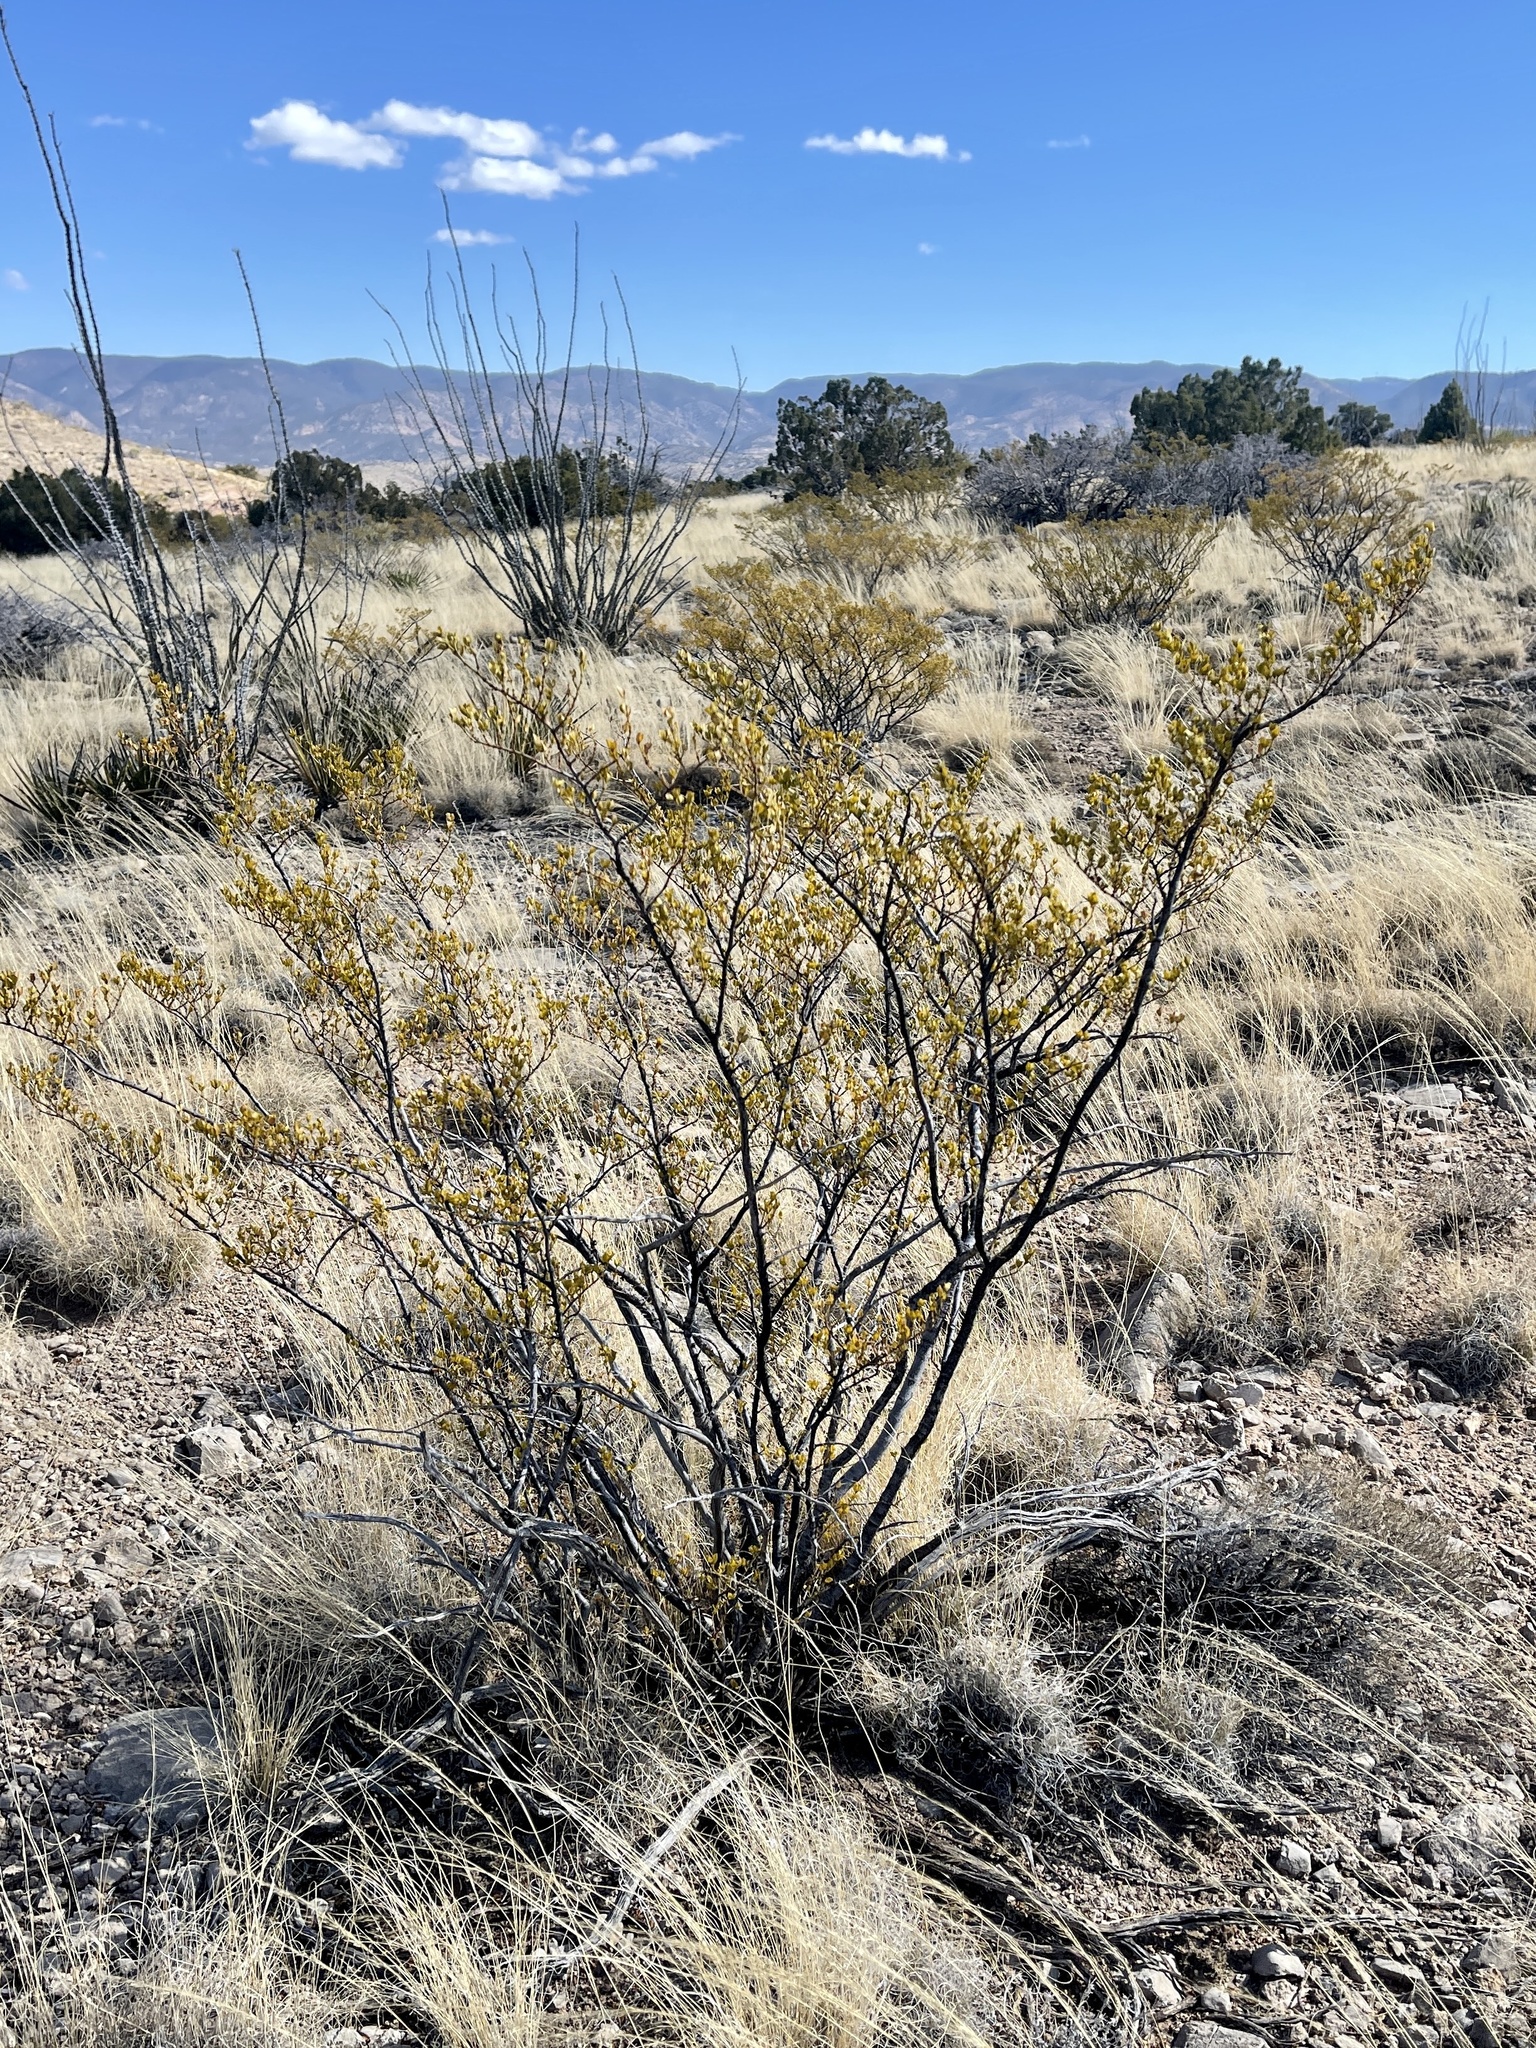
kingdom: Plantae
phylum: Tracheophyta
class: Magnoliopsida
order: Zygophyllales
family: Zygophyllaceae
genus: Larrea
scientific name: Larrea tridentata
